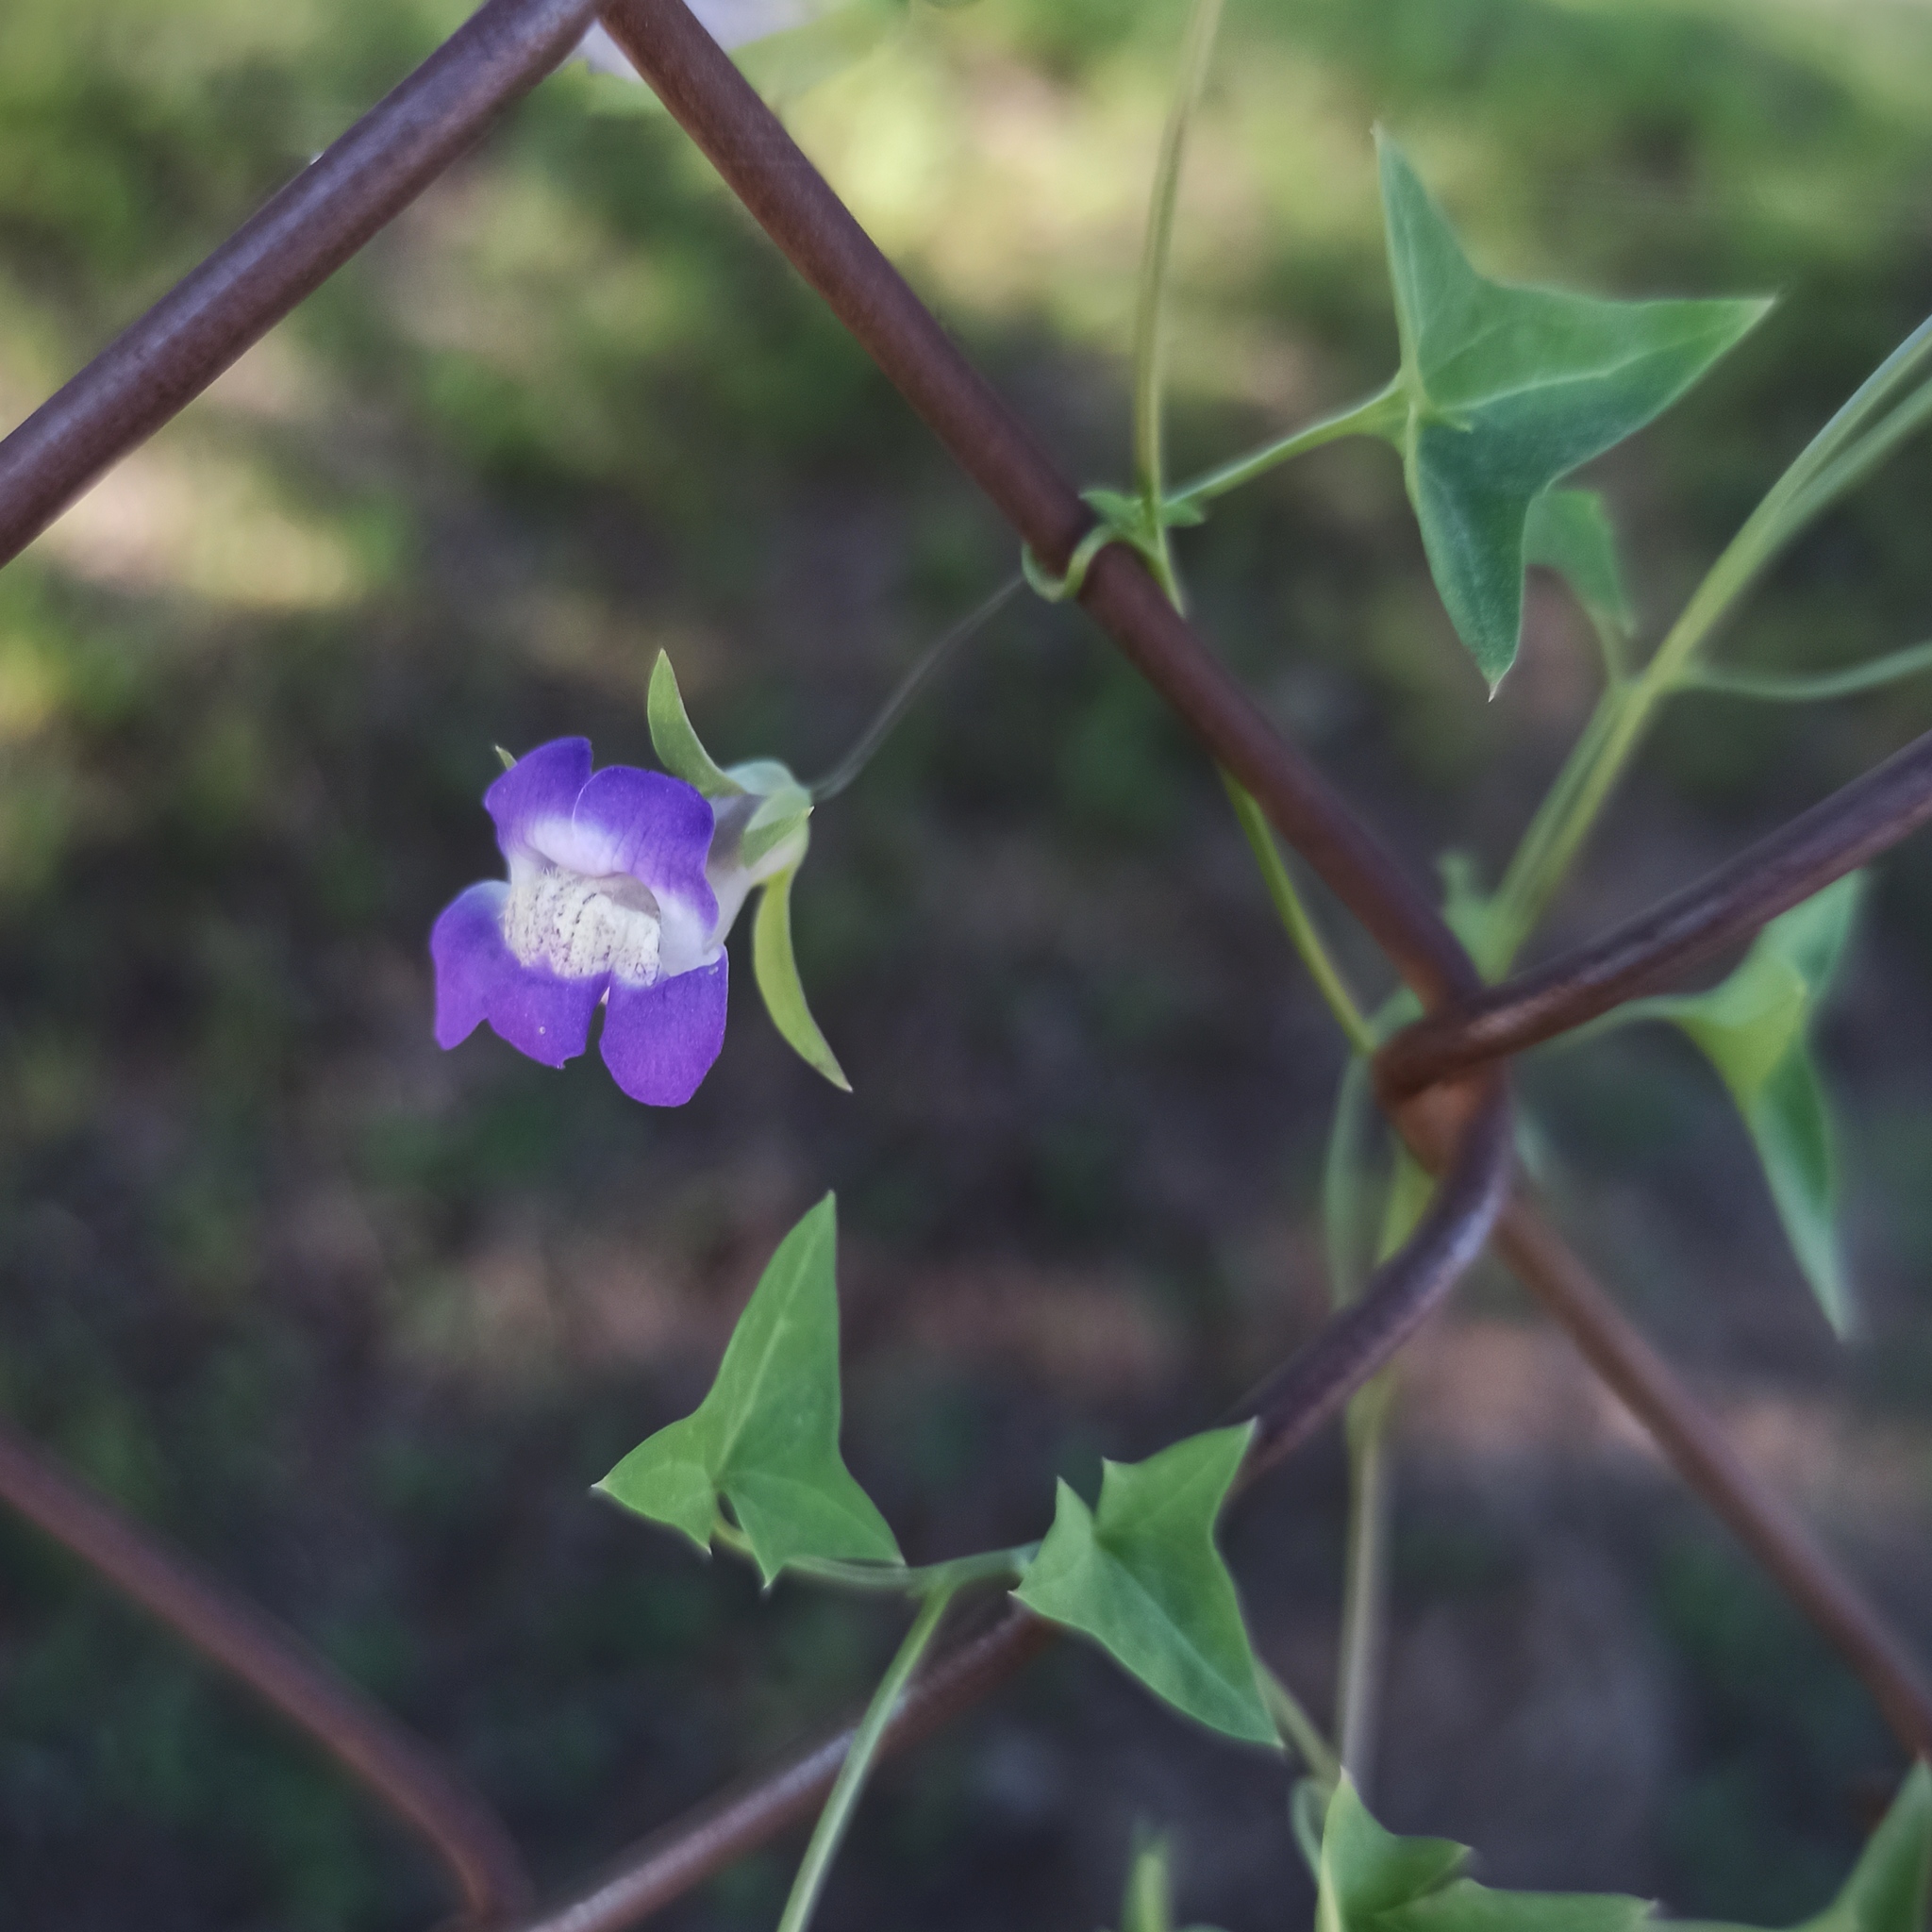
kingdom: Plantae
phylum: Tracheophyta
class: Magnoliopsida
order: Lamiales
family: Plantaginaceae
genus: Maurandella
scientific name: Maurandella antirrhiniflora
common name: Violet twining-snapdragon
